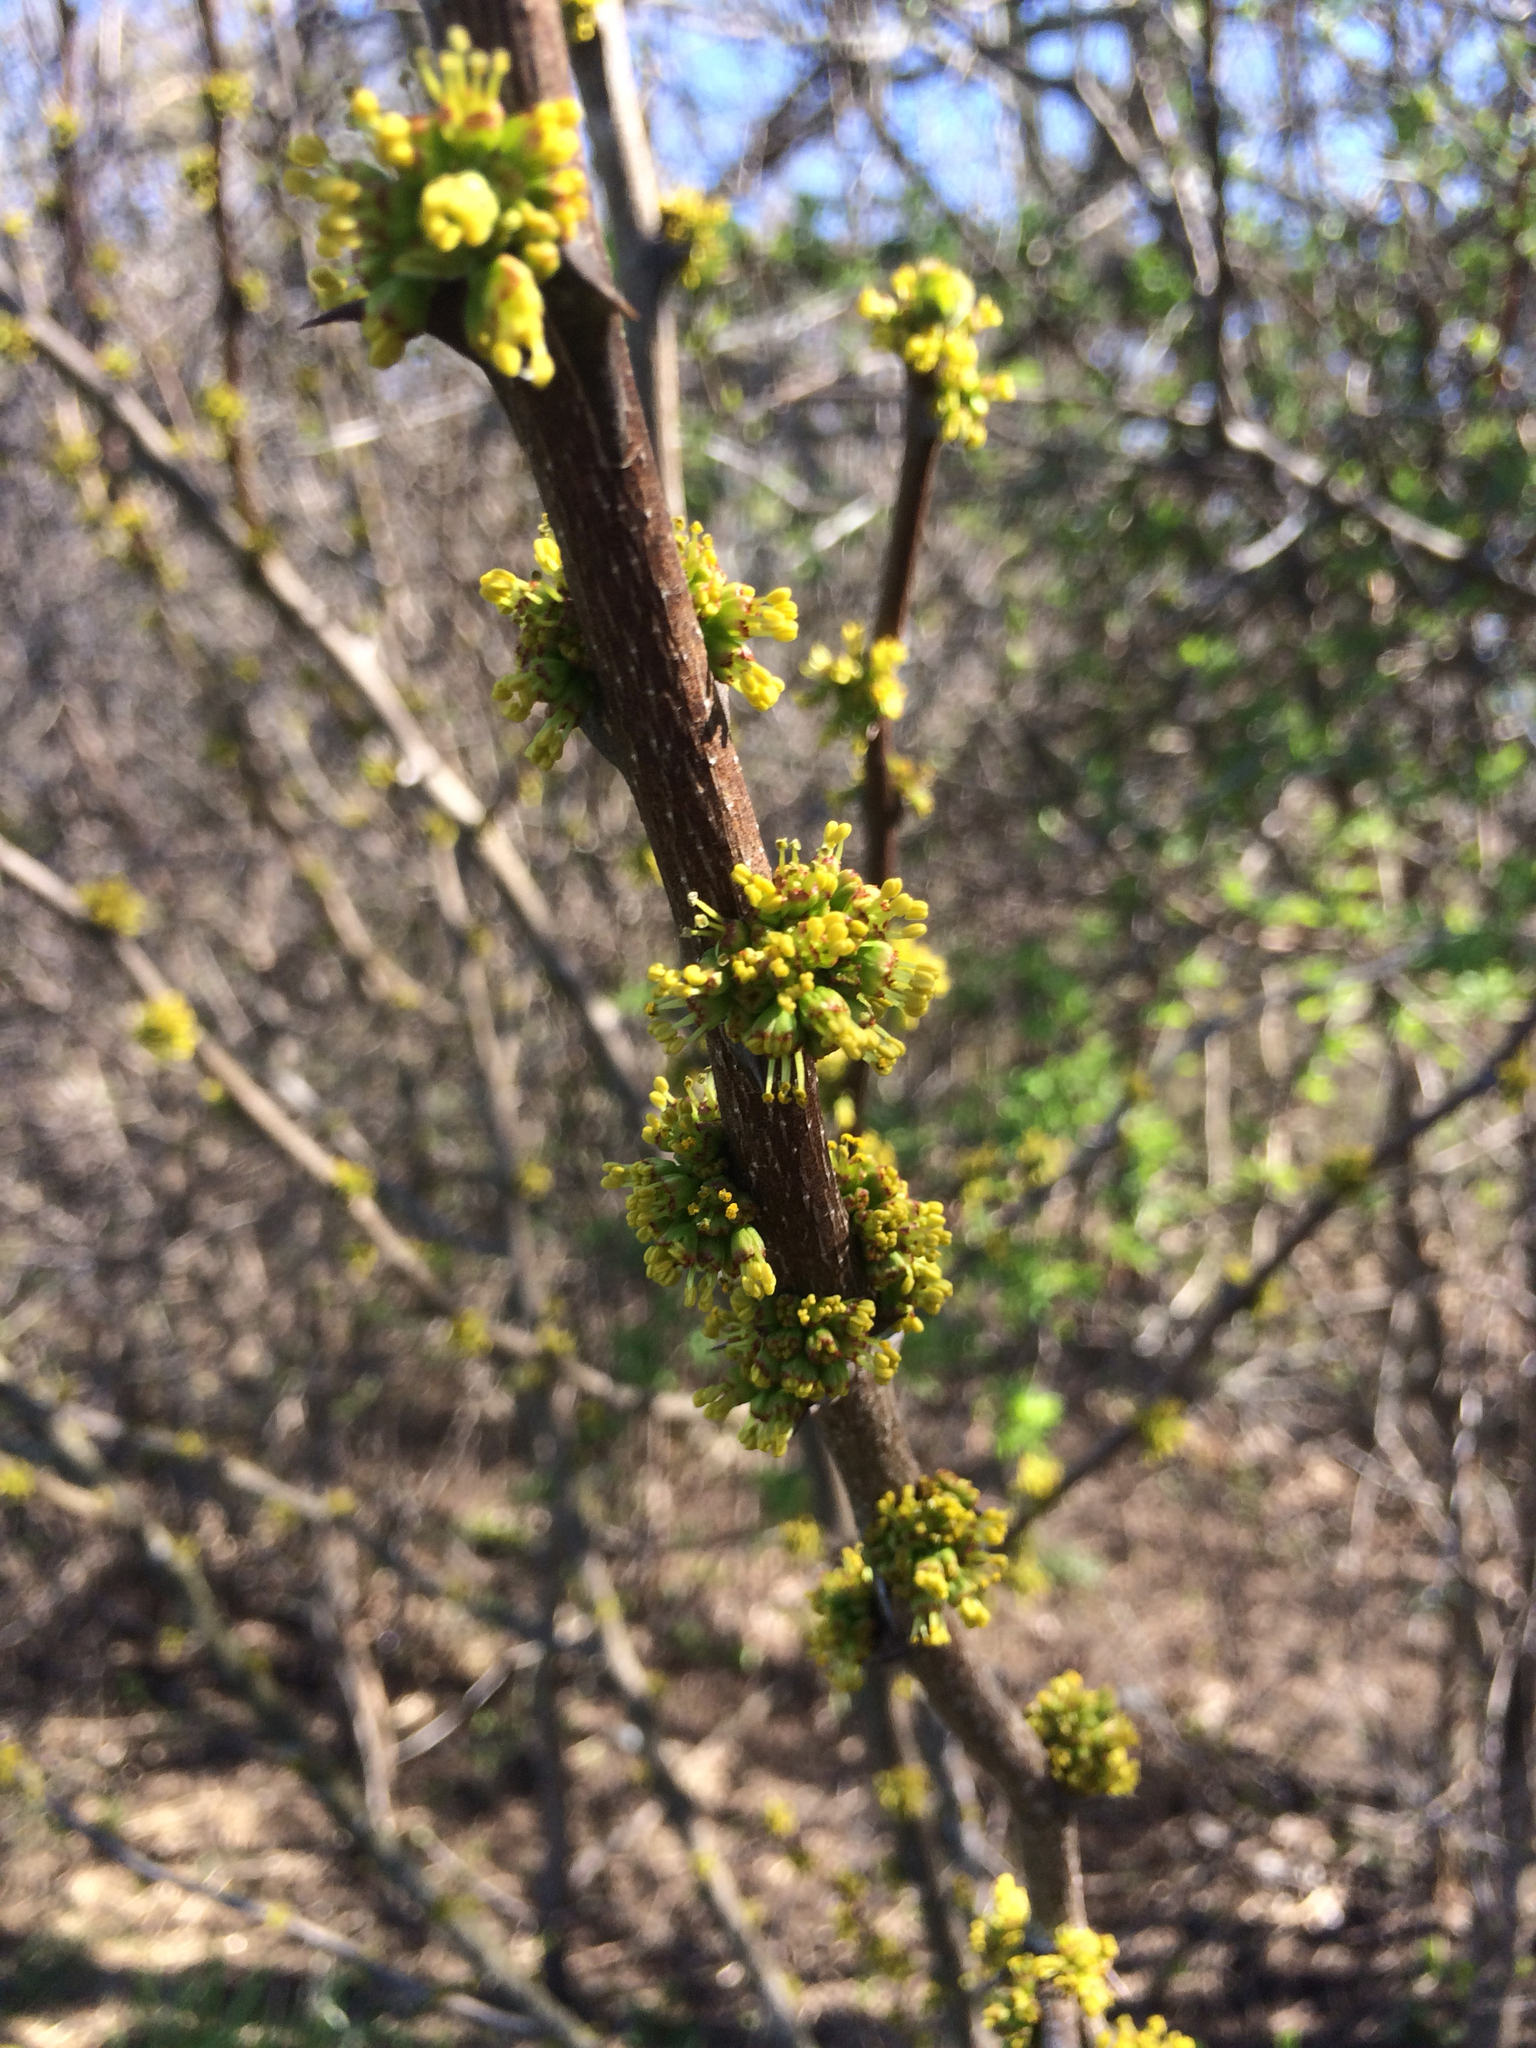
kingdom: Plantae
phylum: Tracheophyta
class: Magnoliopsida
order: Sapindales
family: Rutaceae
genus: Zanthoxylum
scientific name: Zanthoxylum americanum
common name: Northern prickly-ash
